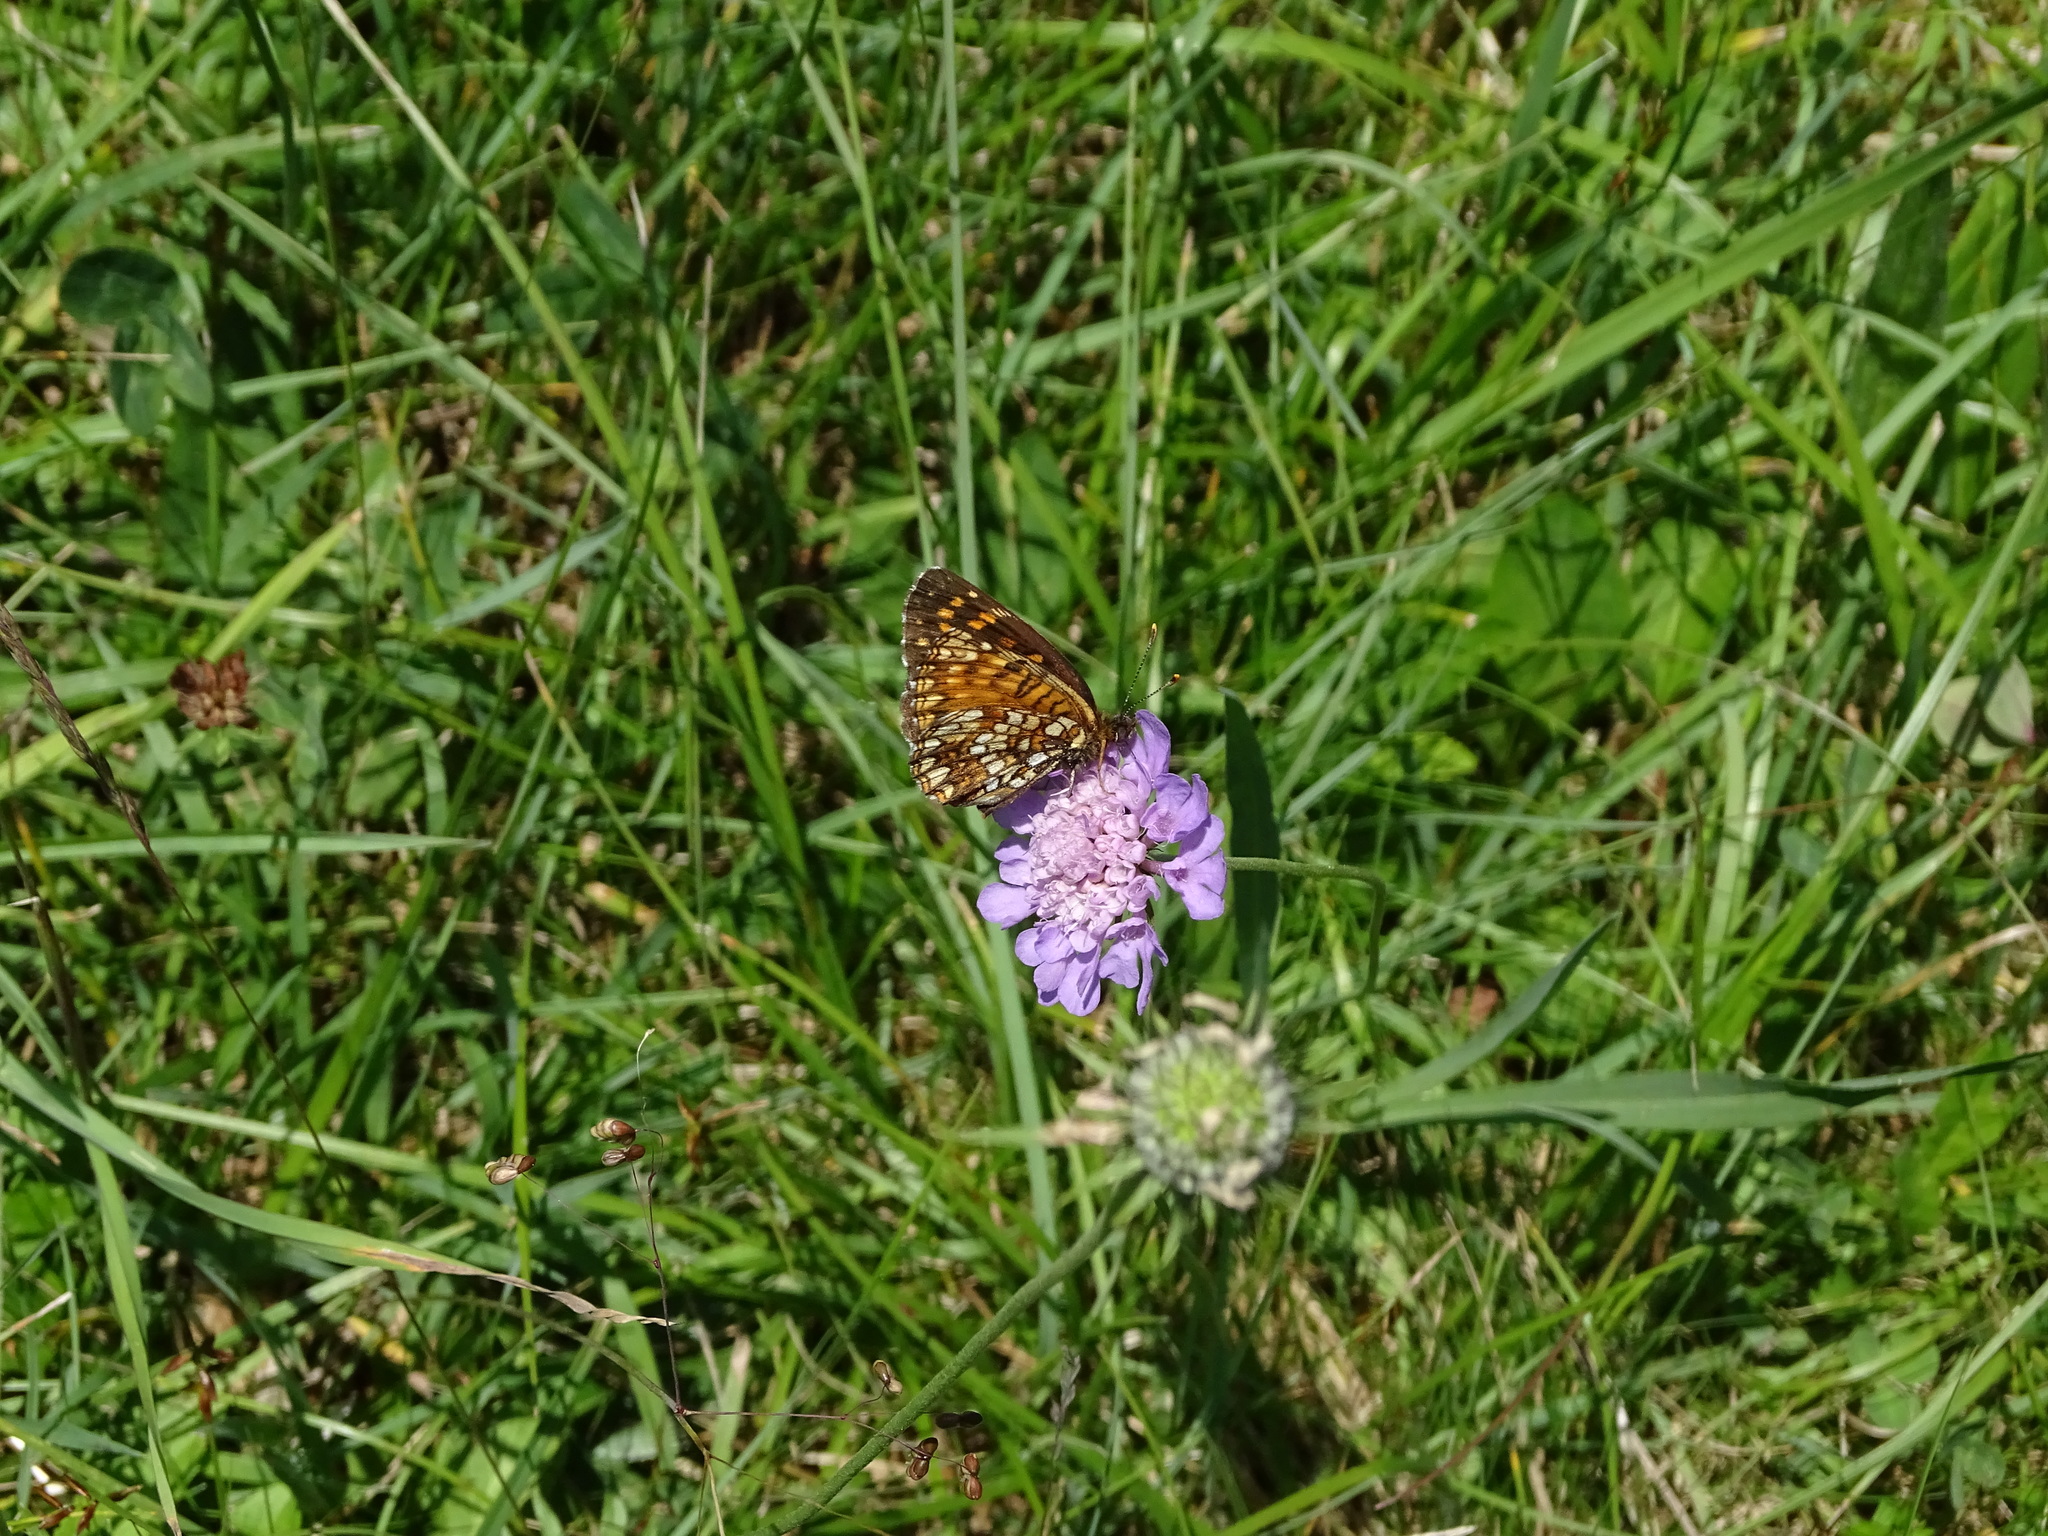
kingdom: Animalia
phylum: Arthropoda
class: Insecta
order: Lepidoptera
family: Nymphalidae
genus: Melitaea
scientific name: Melitaea diamina
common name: False heath fritillary
